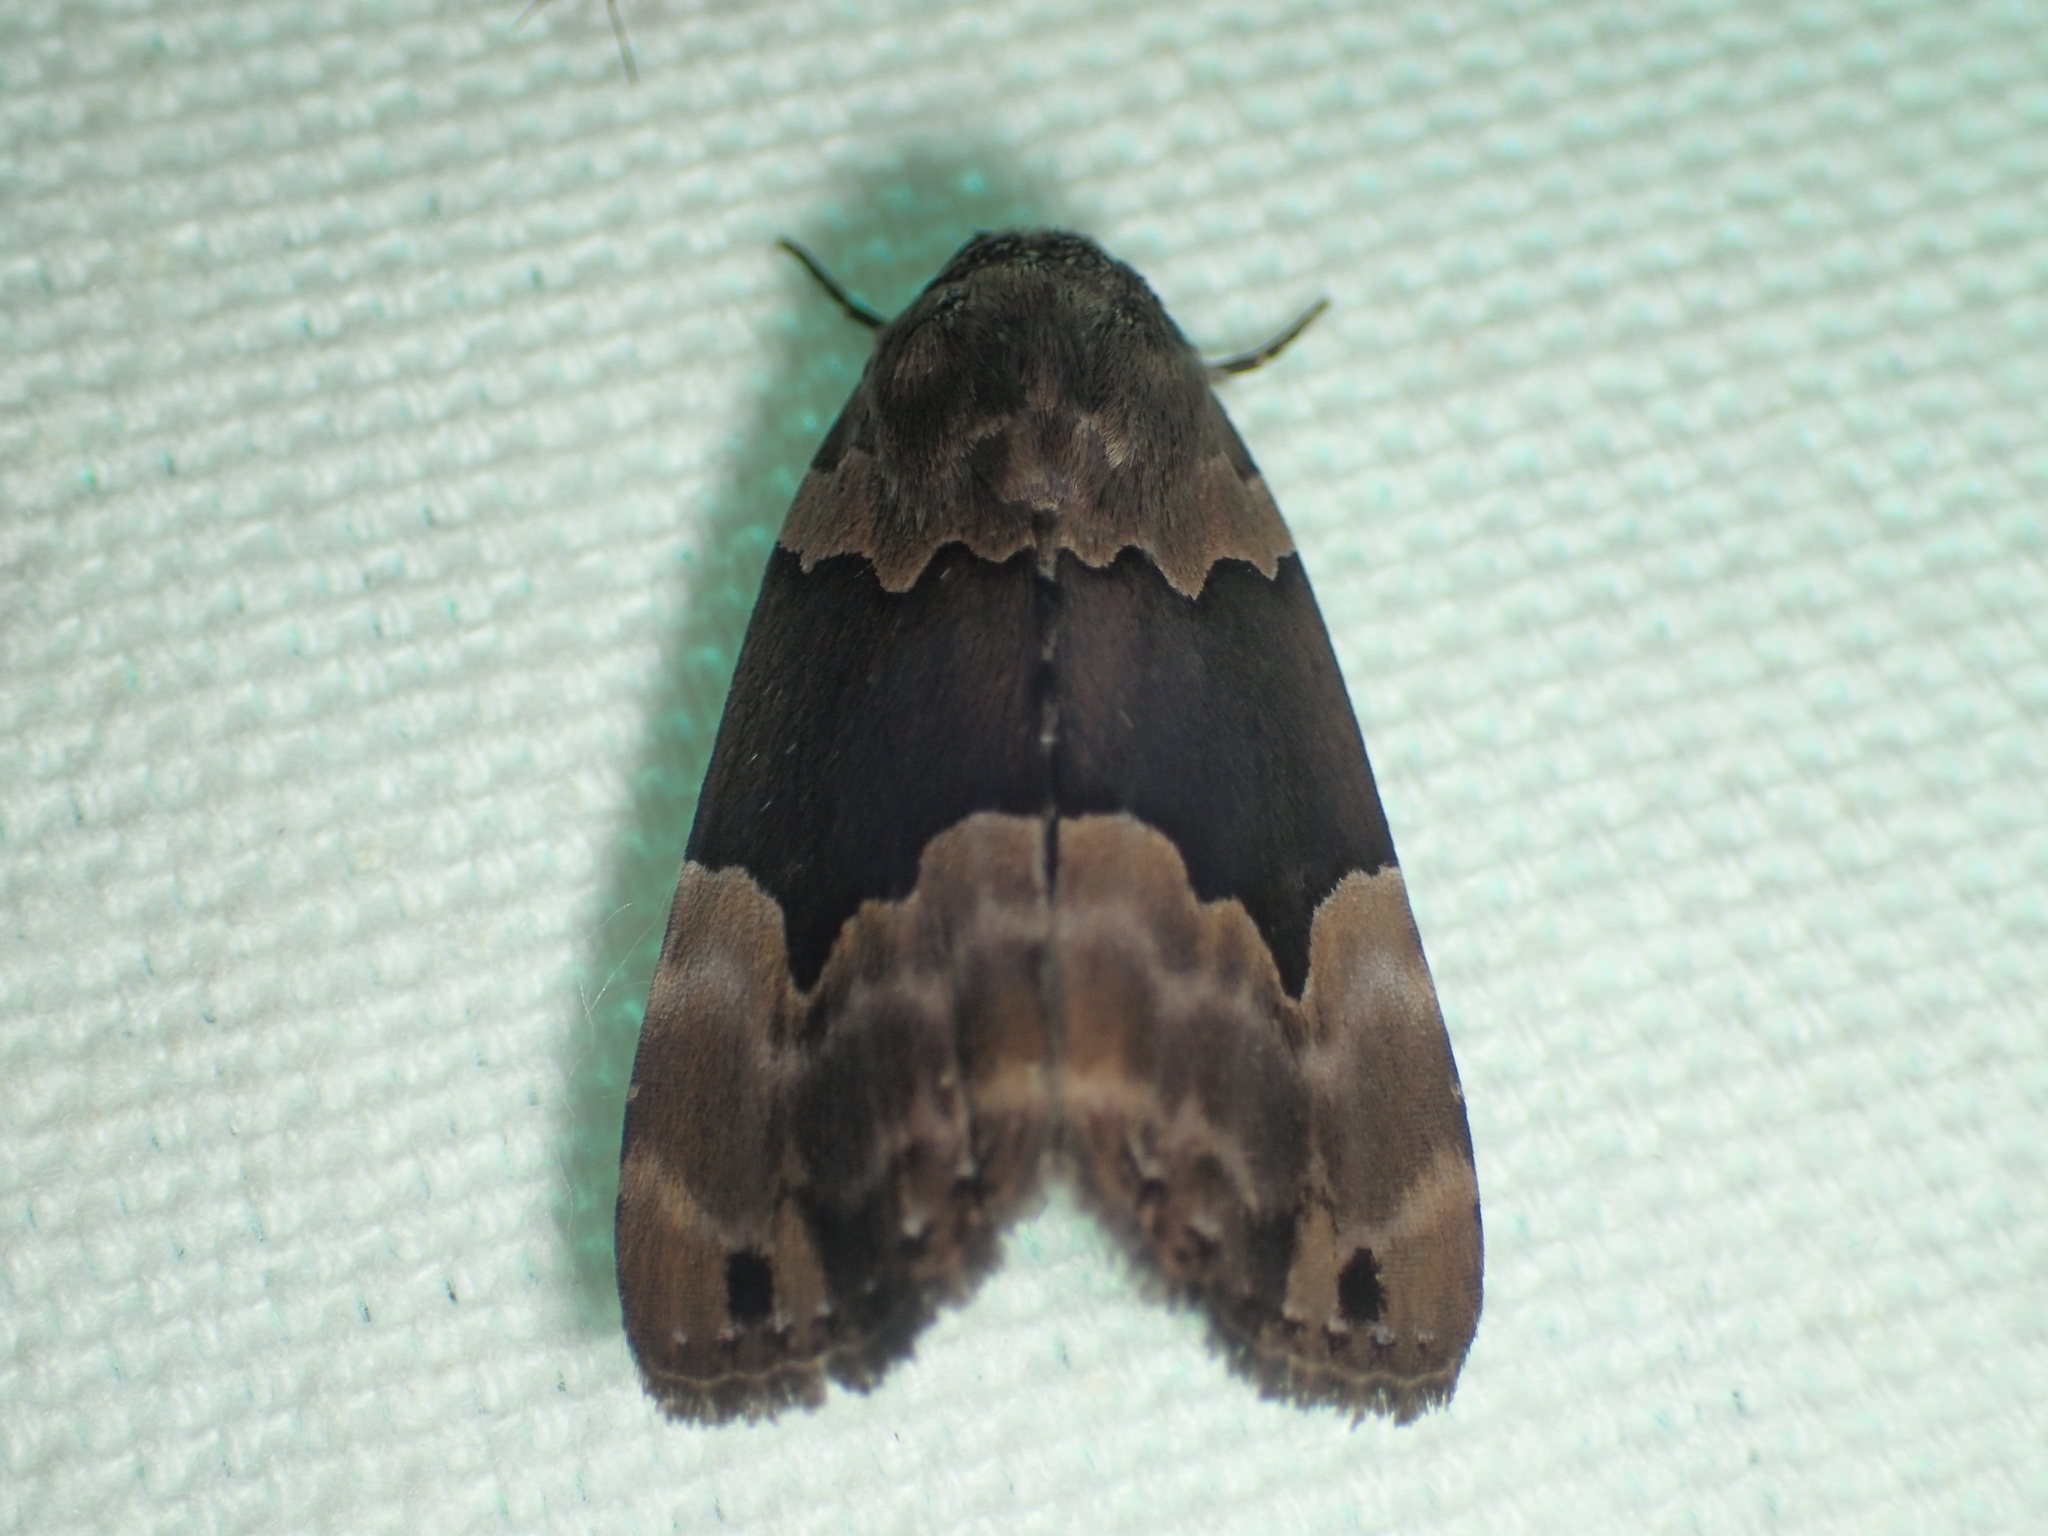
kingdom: Animalia
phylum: Arthropoda
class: Insecta
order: Lepidoptera
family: Erebidae
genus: Dinumma
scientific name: Dinumma deponens
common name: Purplish moth
